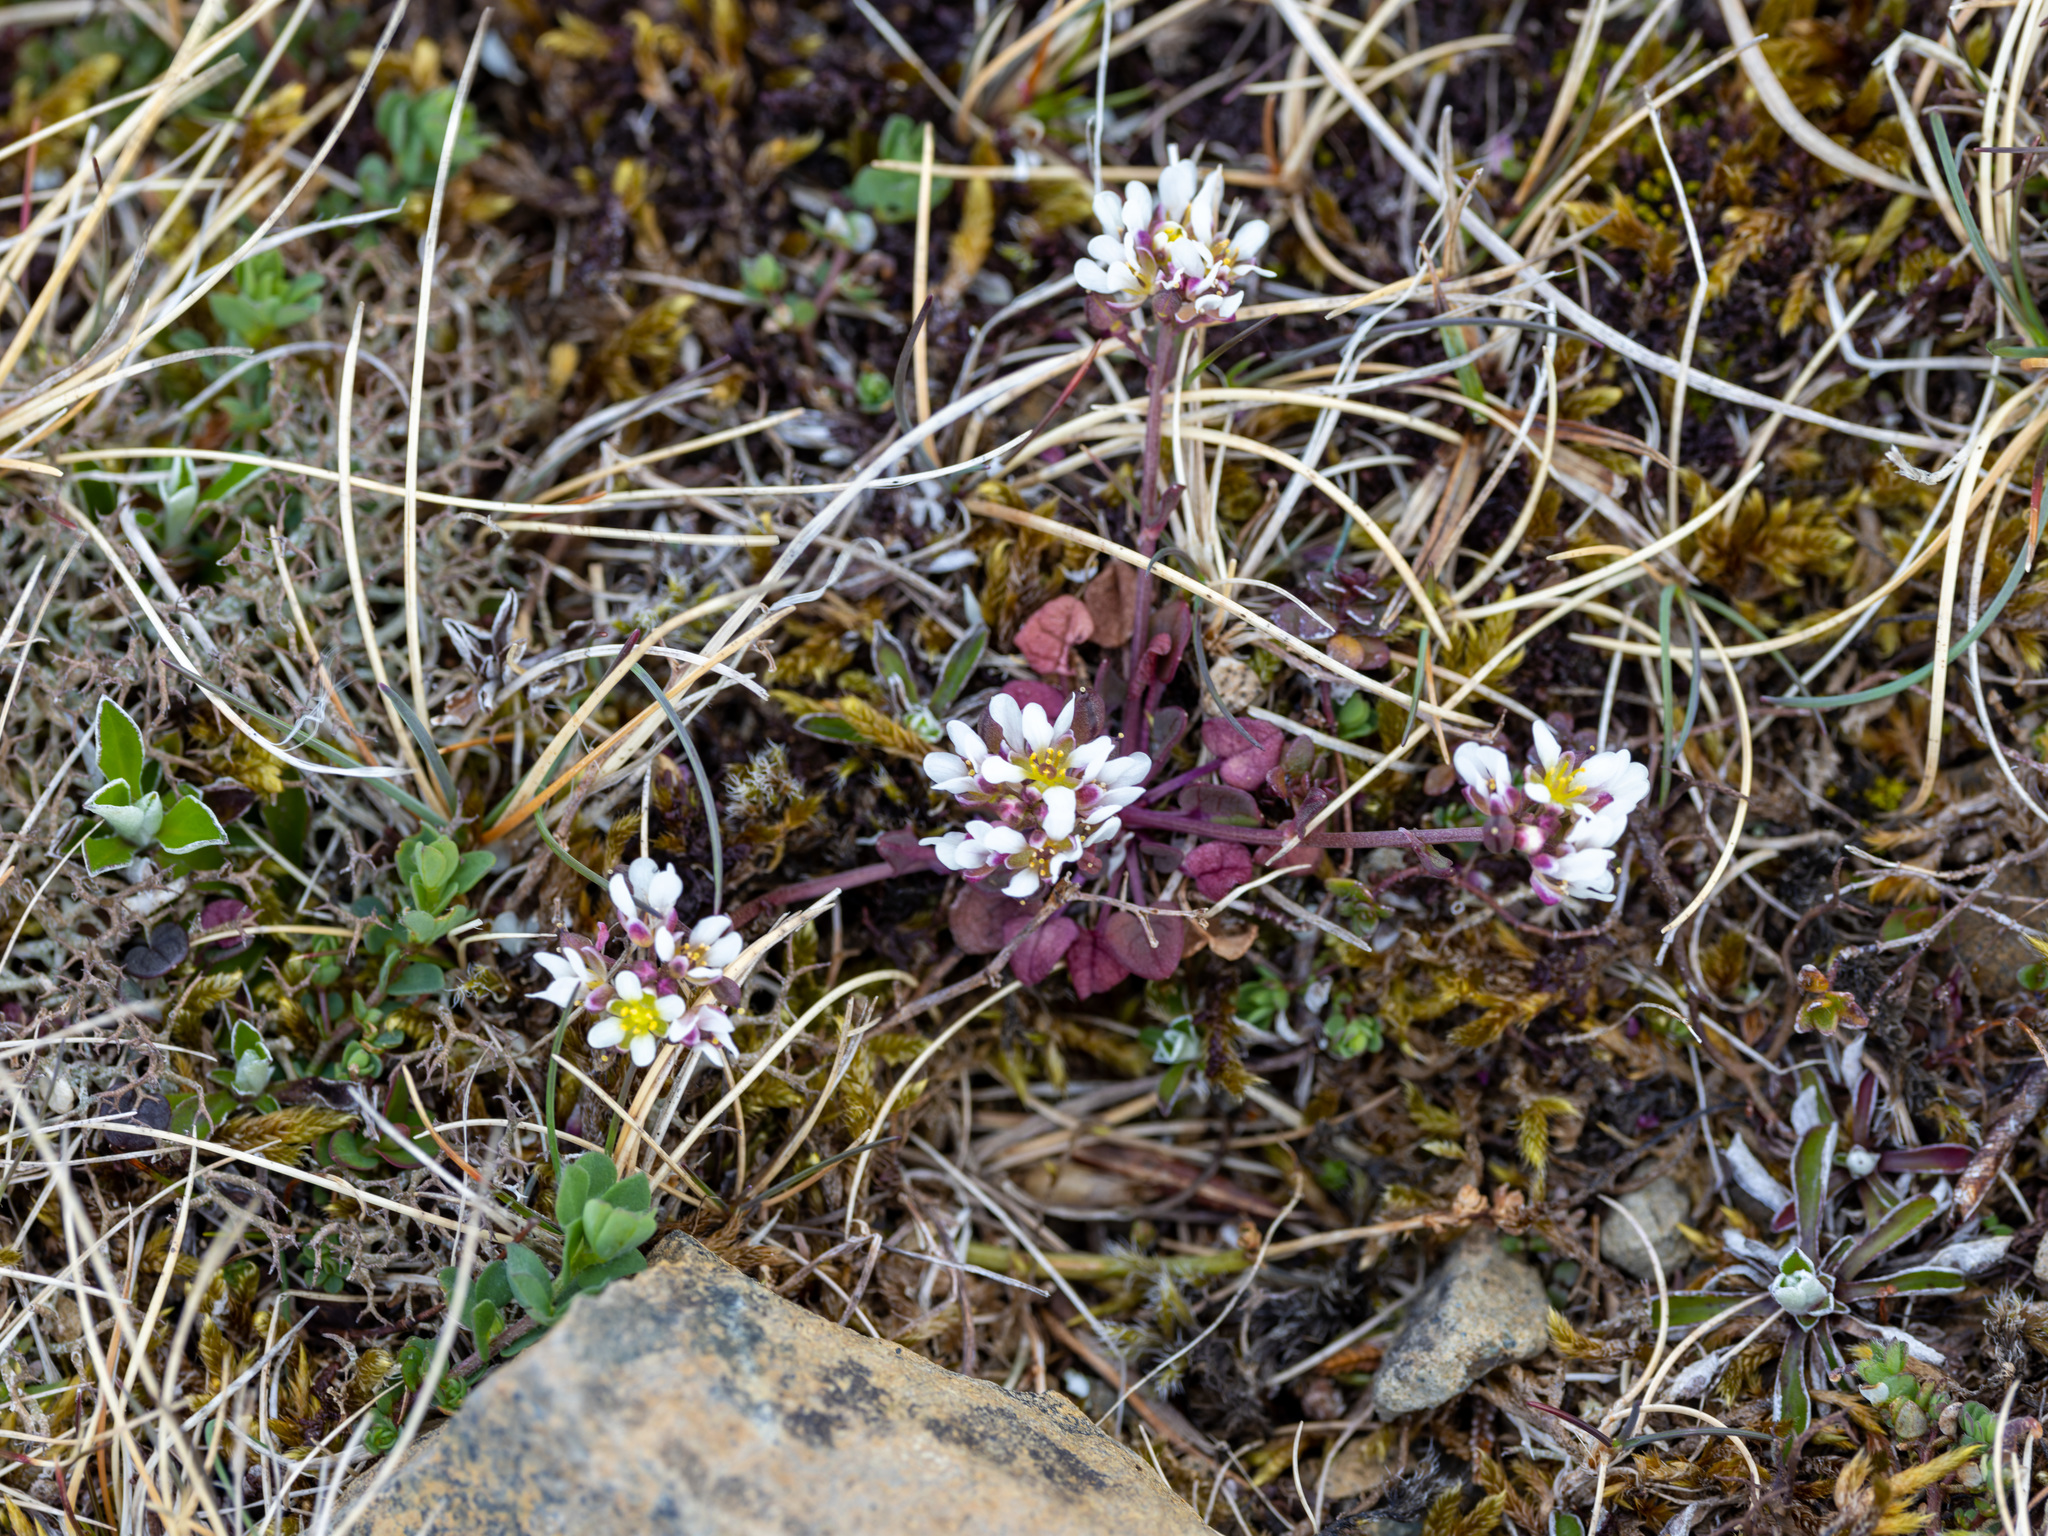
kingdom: Plantae
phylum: Tracheophyta
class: Magnoliopsida
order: Brassicales
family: Brassicaceae
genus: Cochlearia
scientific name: Cochlearia officinalis
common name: Scurvy-grass
